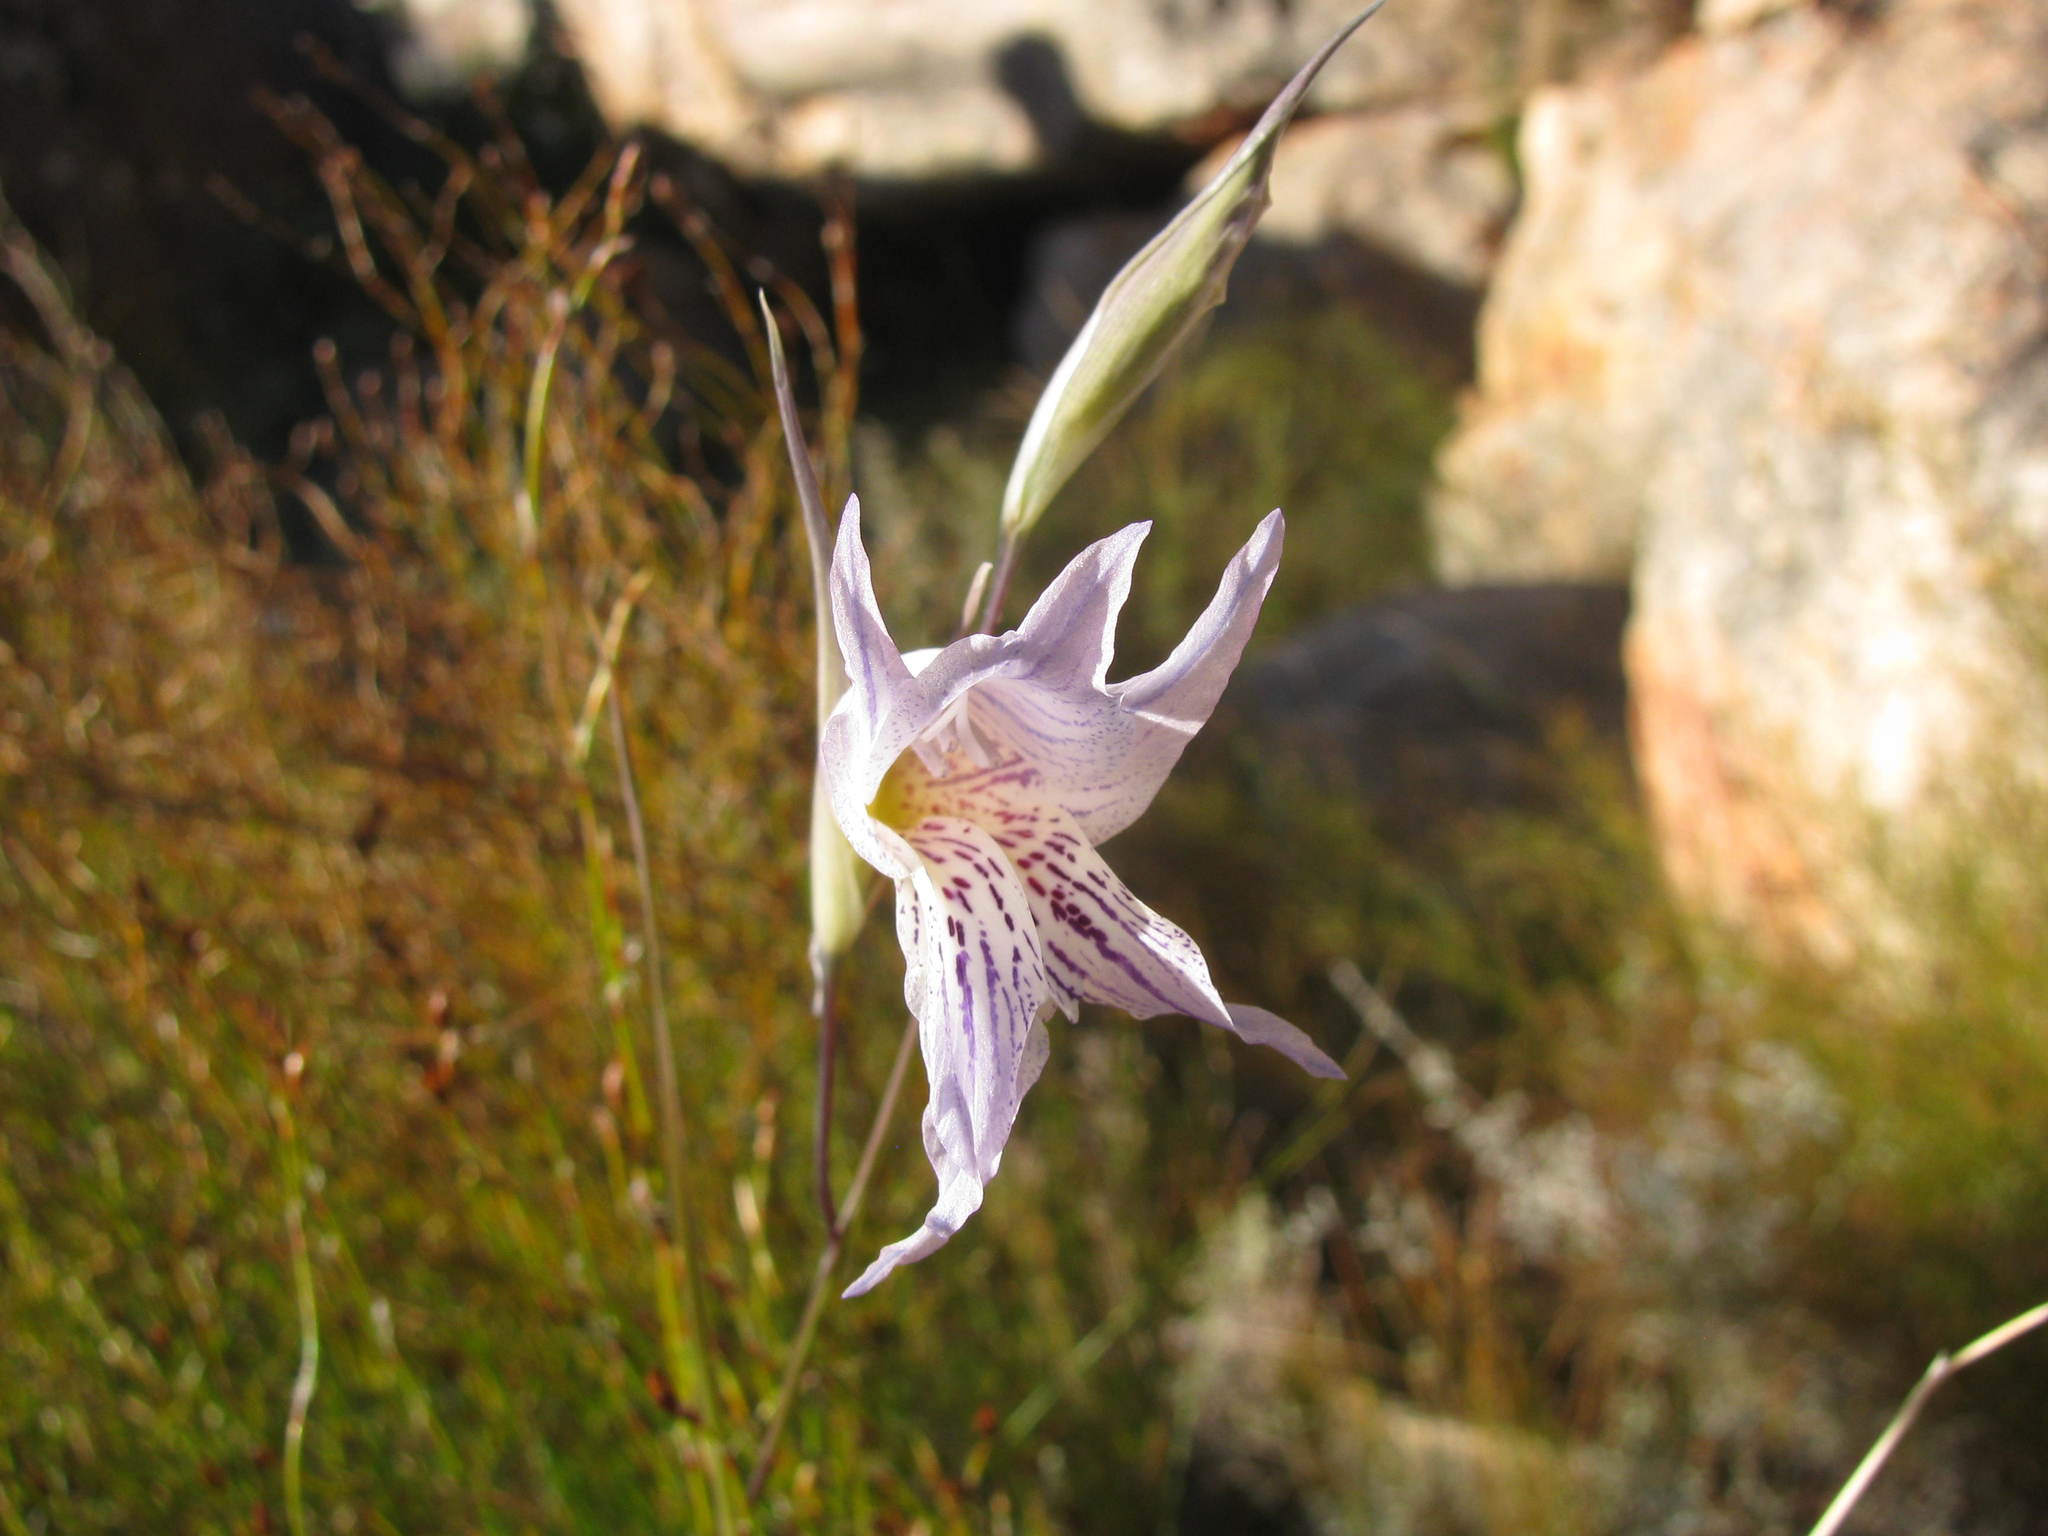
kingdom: Plantae
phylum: Tracheophyta
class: Liliopsida
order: Asparagales
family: Iridaceae
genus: Gladiolus
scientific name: Gladiolus violaceolineatus
